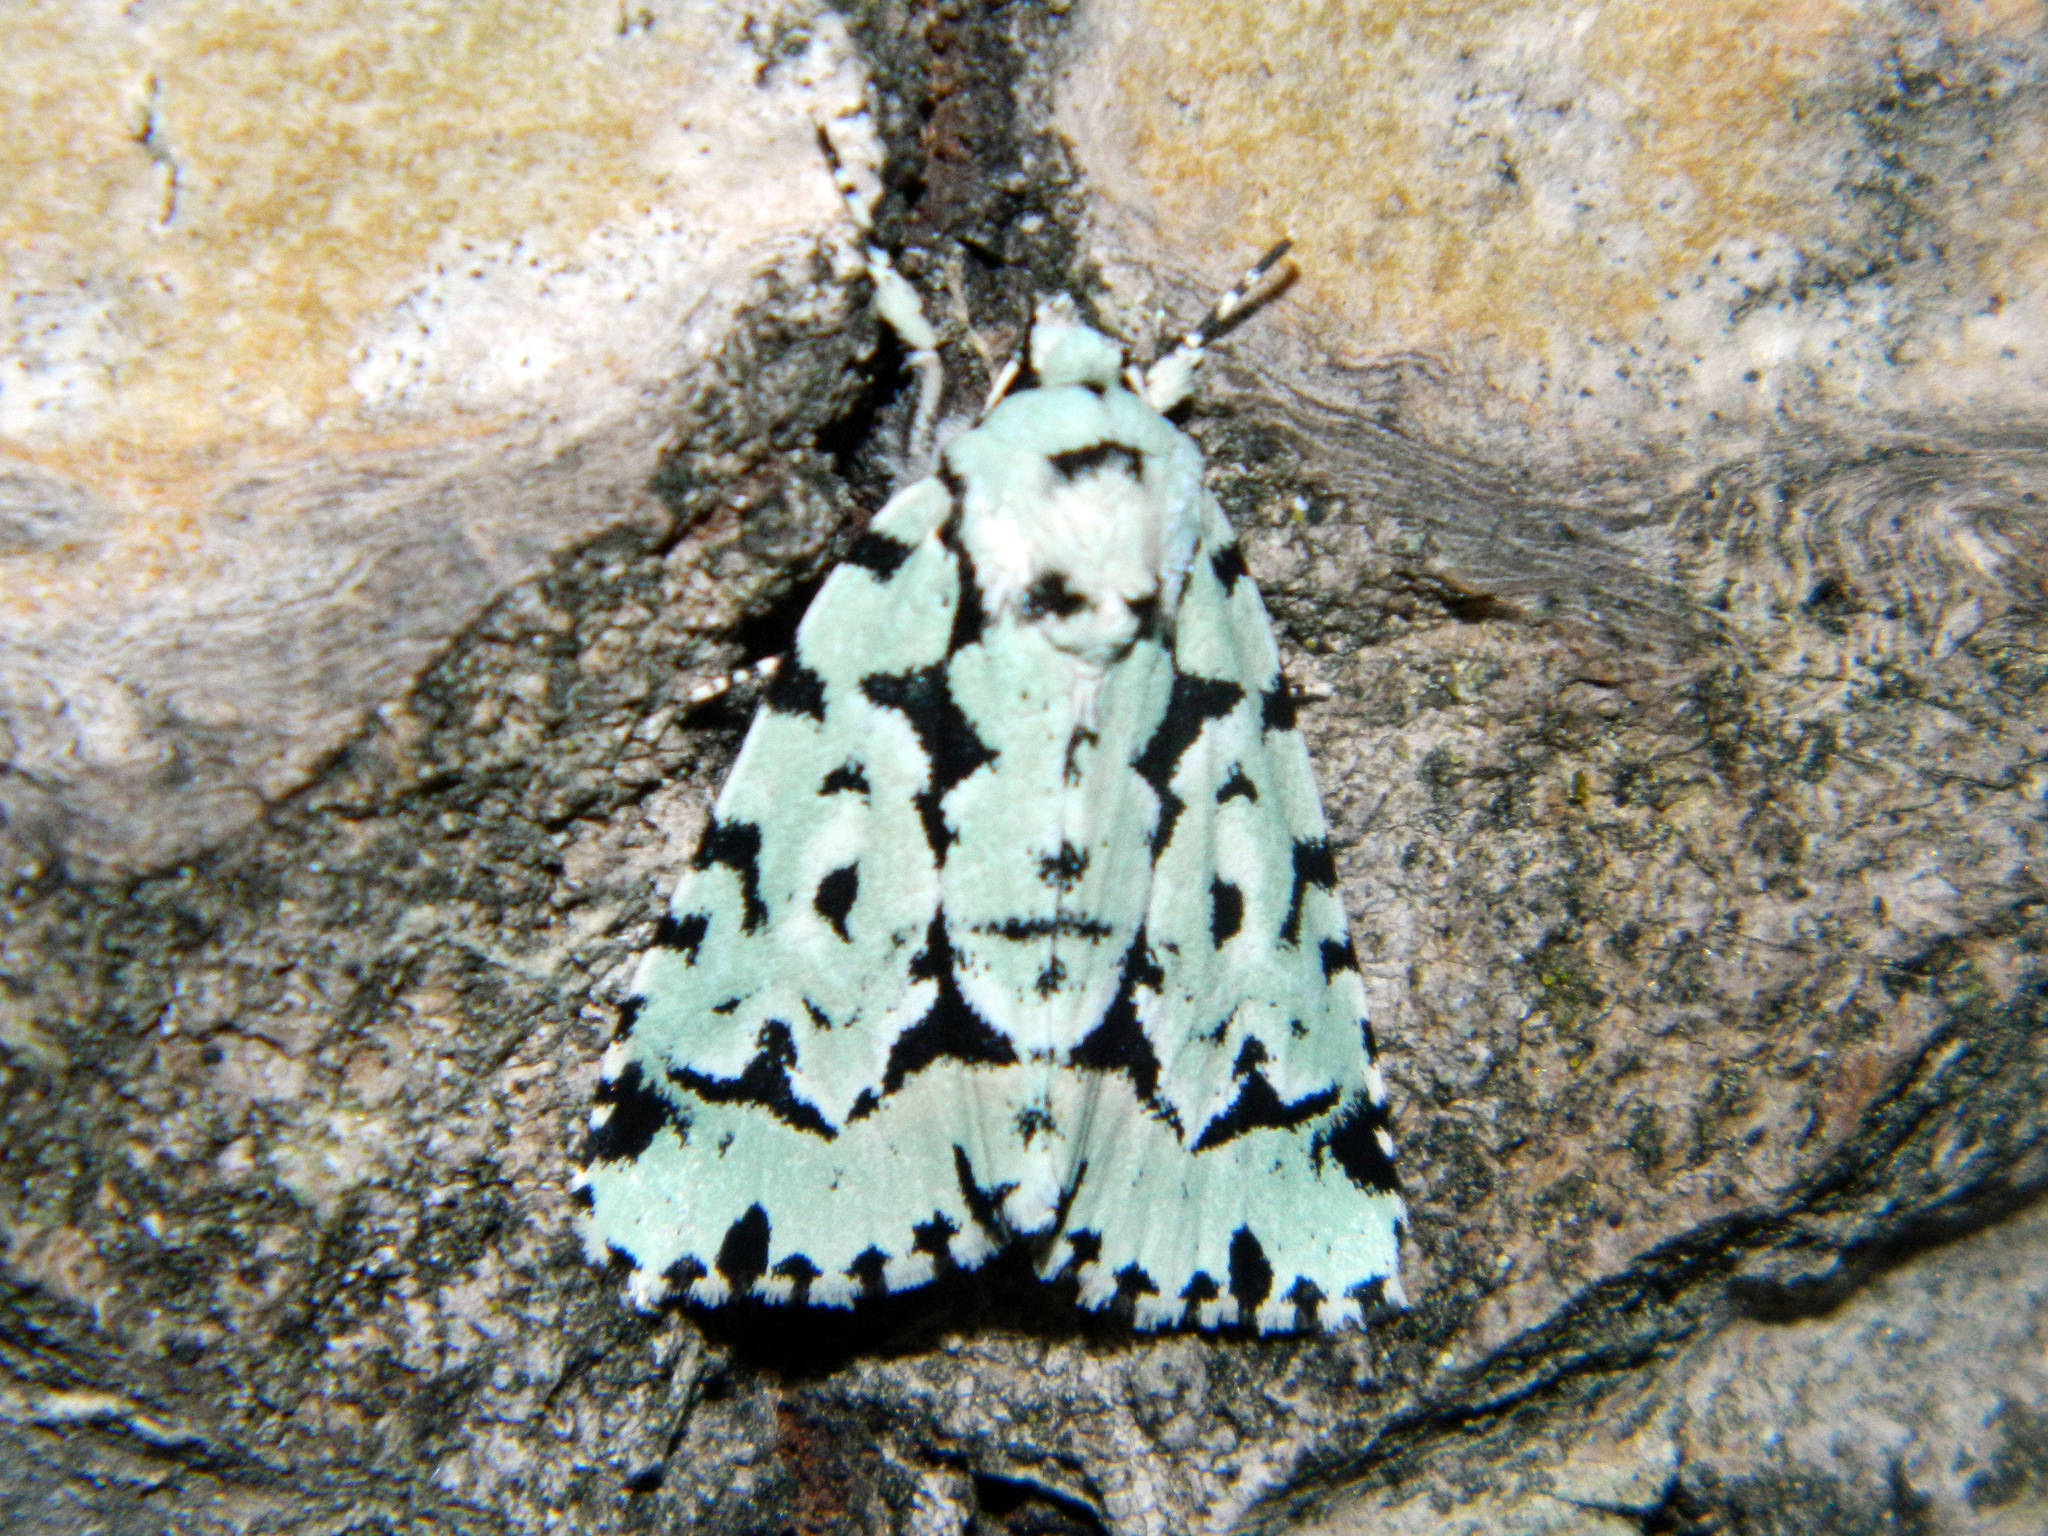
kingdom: Animalia
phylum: Arthropoda
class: Insecta
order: Lepidoptera
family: Noctuidae
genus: Acronicta
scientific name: Acronicta fallax
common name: Green marvel
